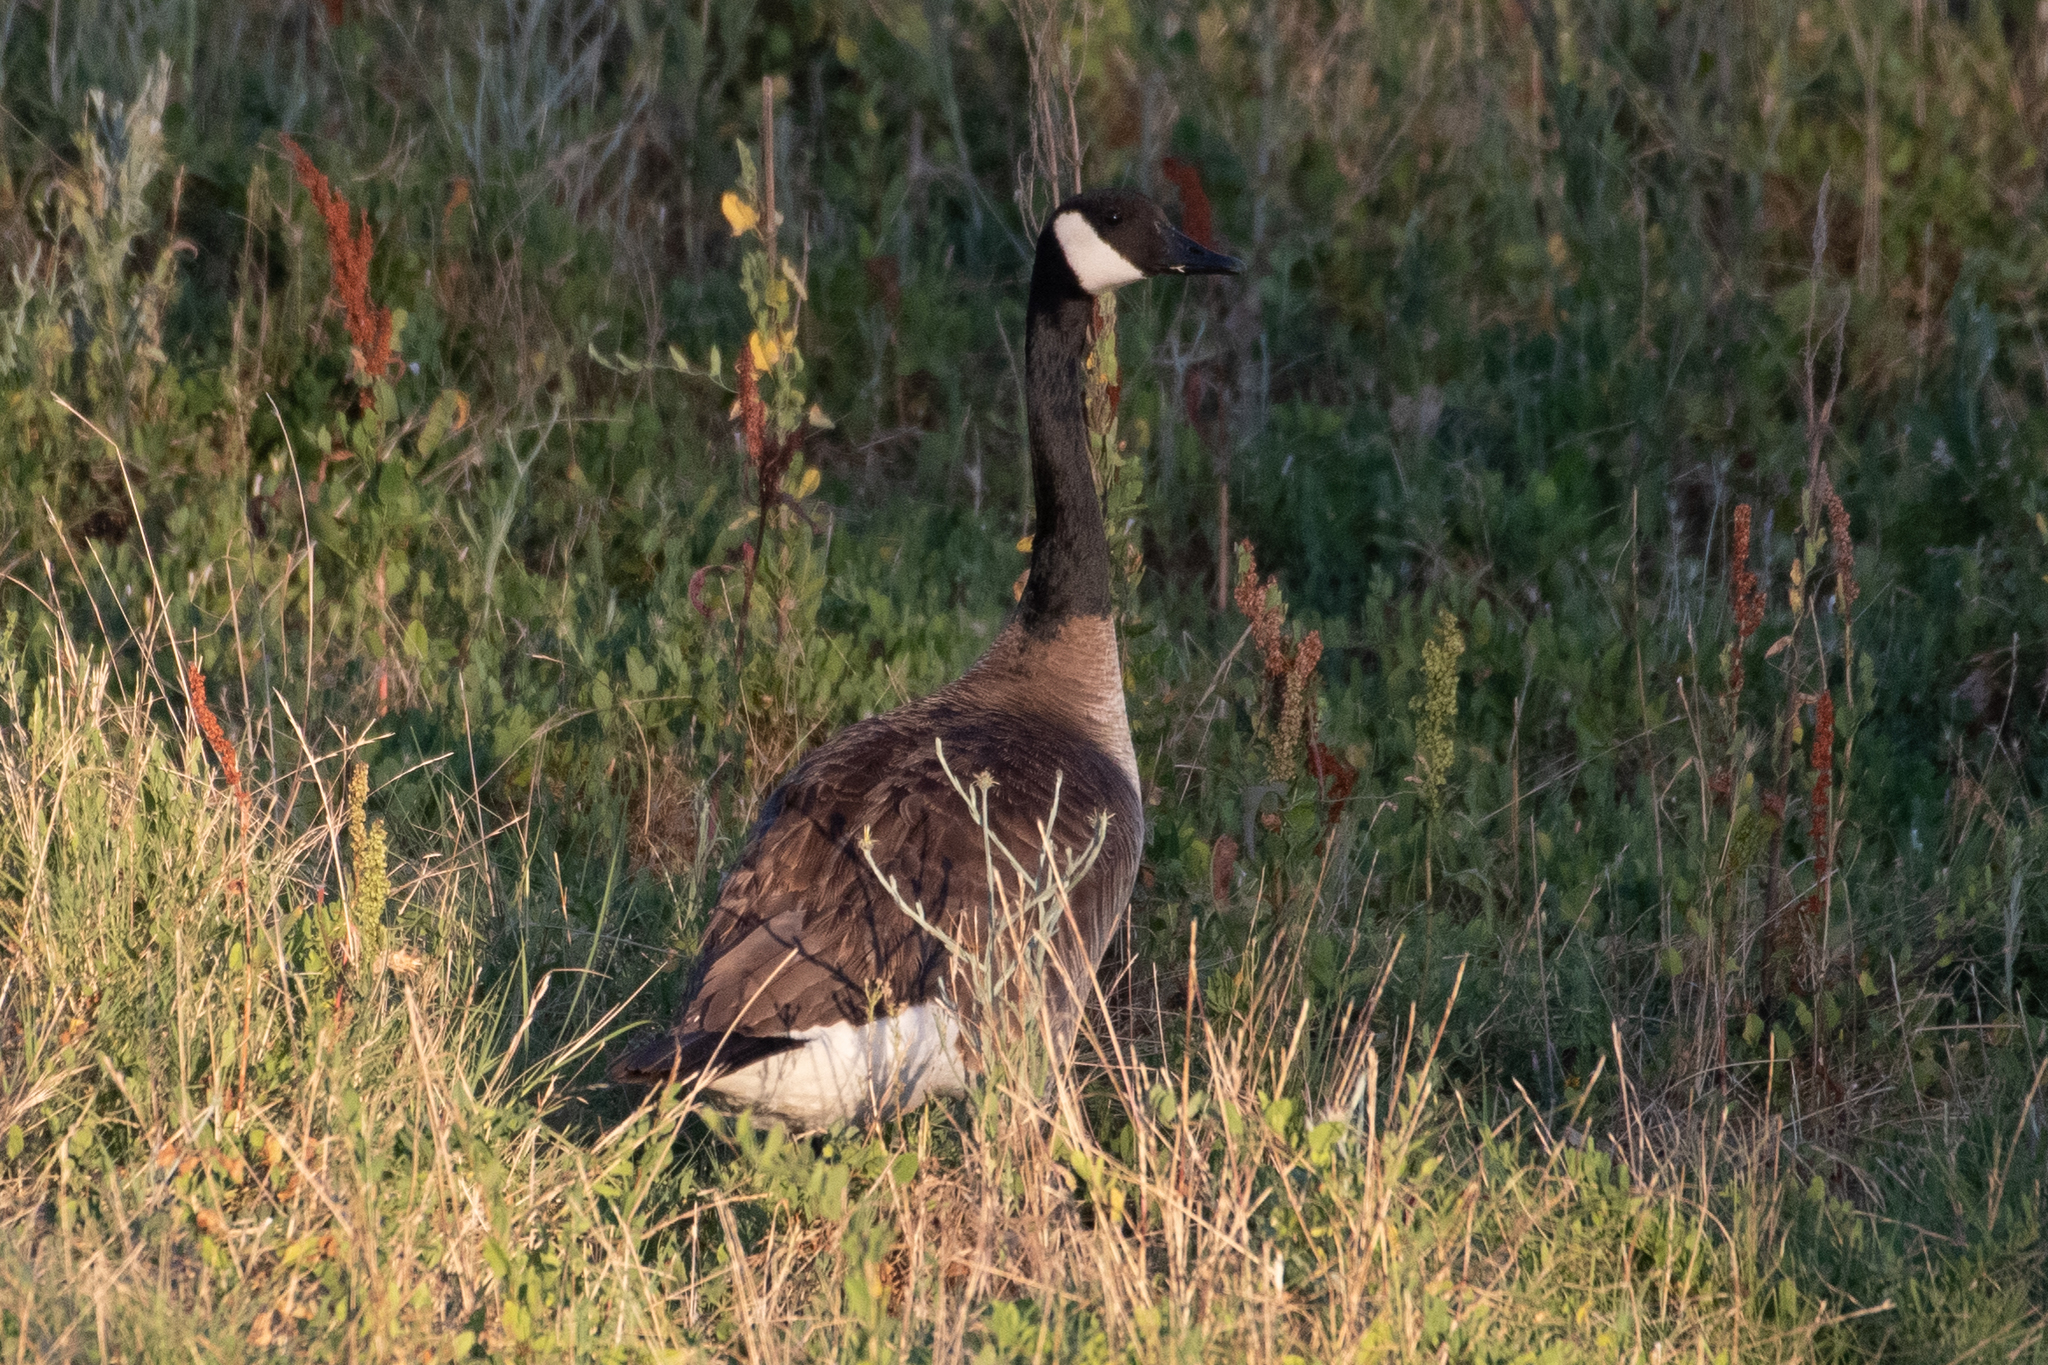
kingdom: Animalia
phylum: Chordata
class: Aves
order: Anseriformes
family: Anatidae
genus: Branta
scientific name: Branta canadensis
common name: Canada goose
